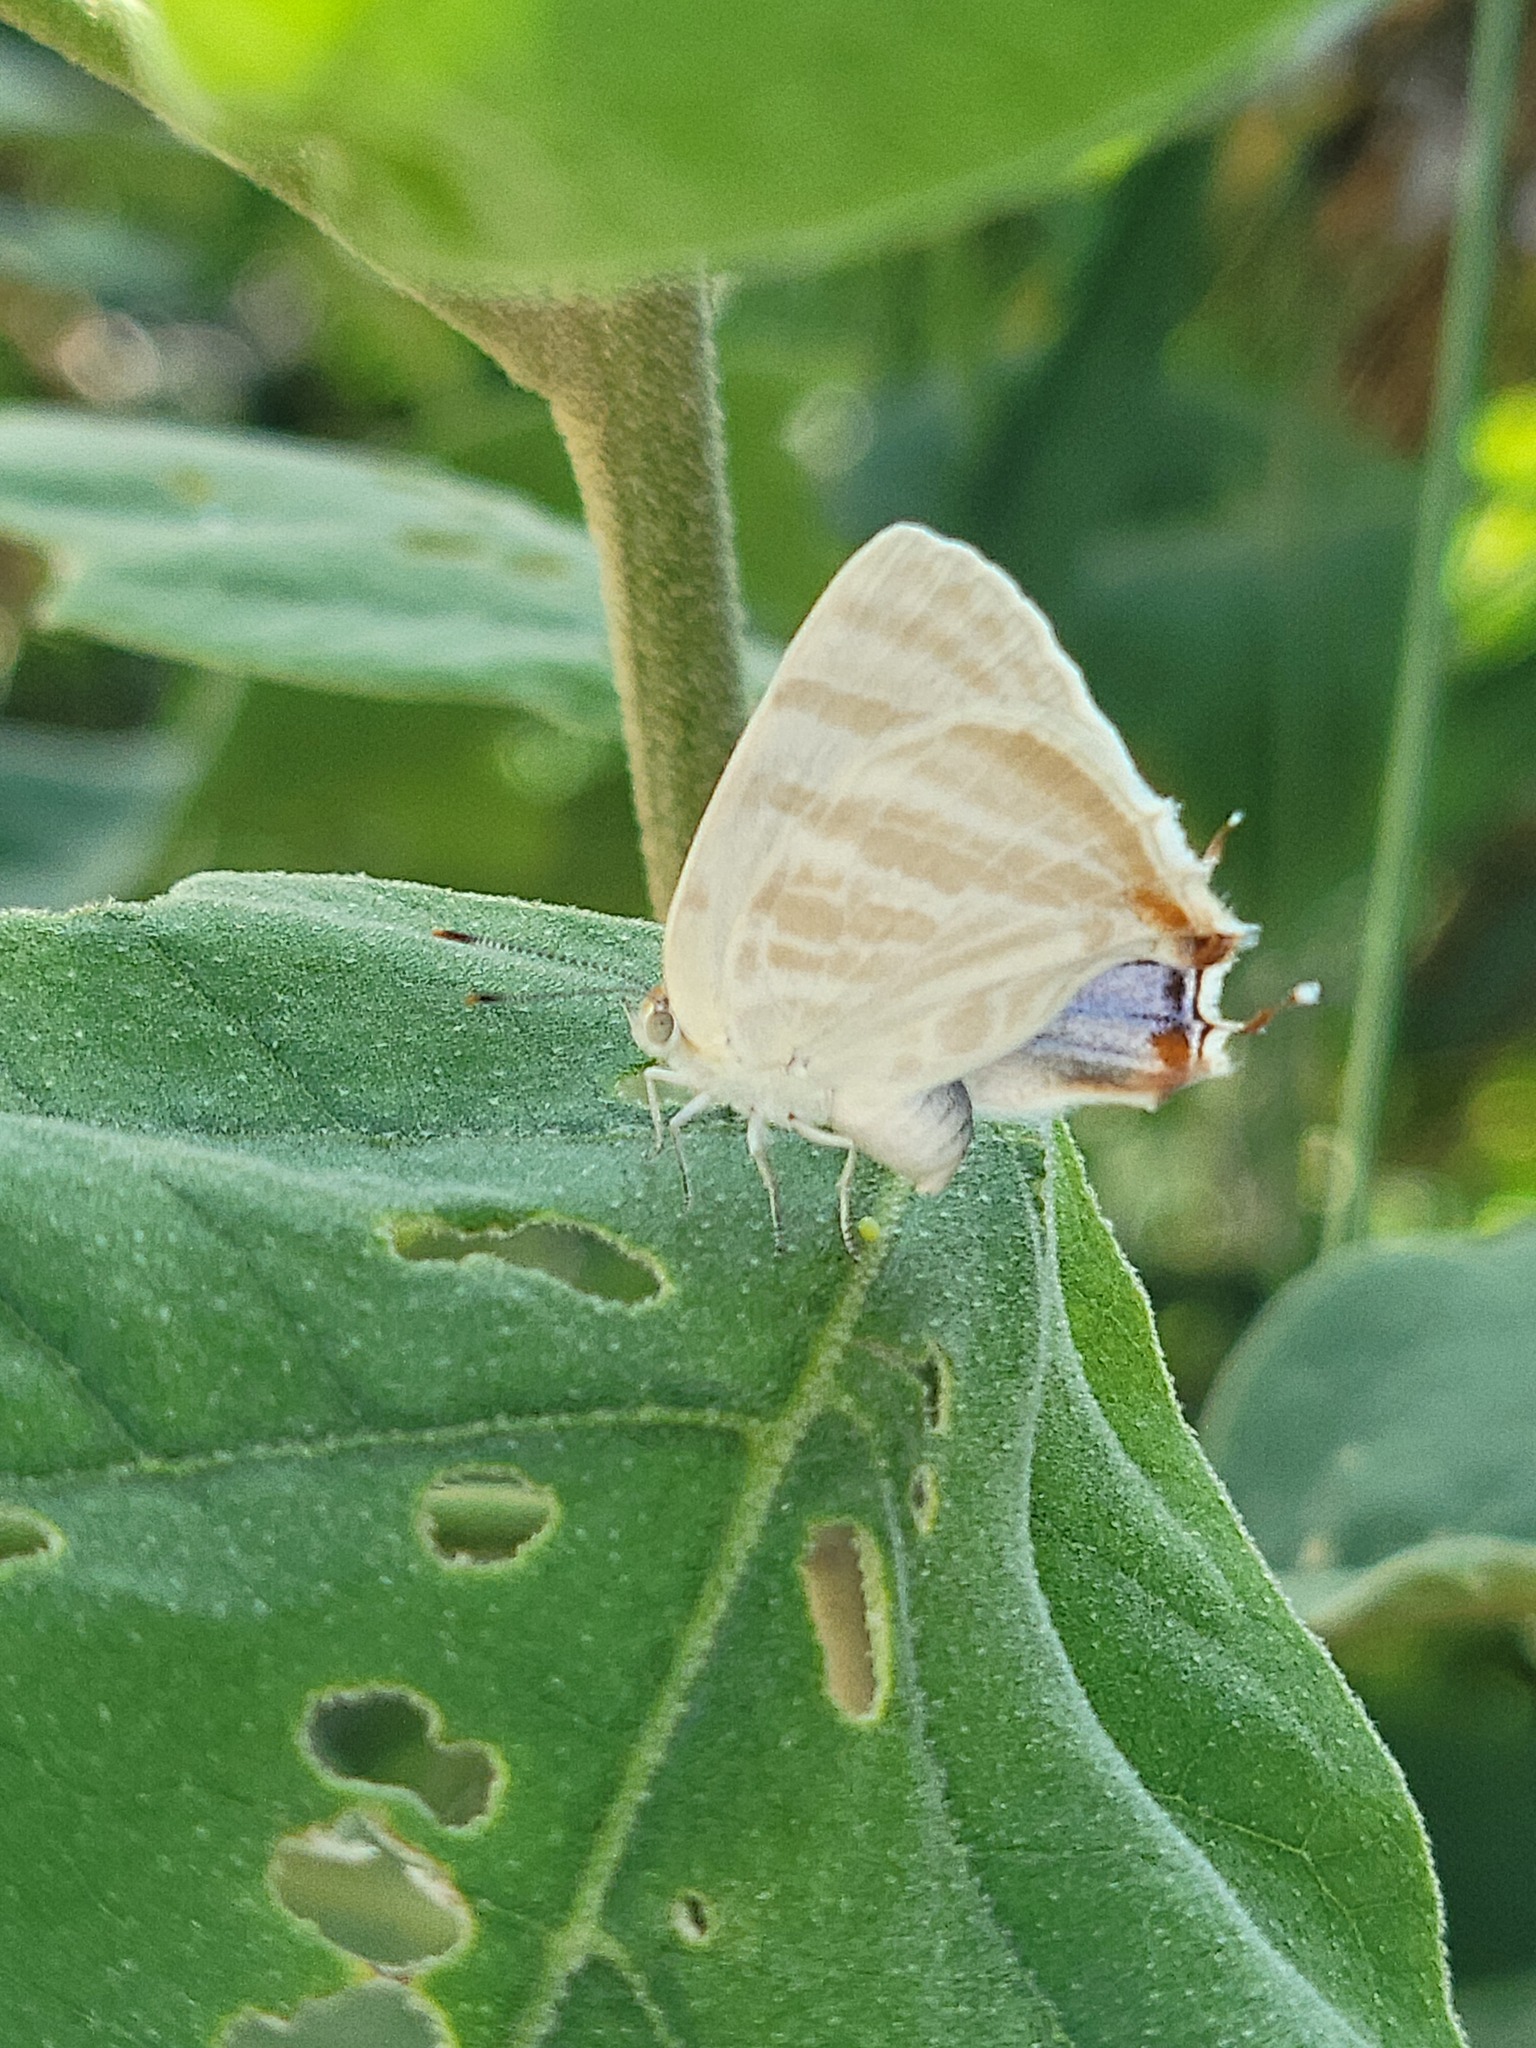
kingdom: Animalia
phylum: Arthropoda
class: Insecta
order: Lepidoptera
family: Lycaenidae
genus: Dolymorpha
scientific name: Dolymorpha jada
